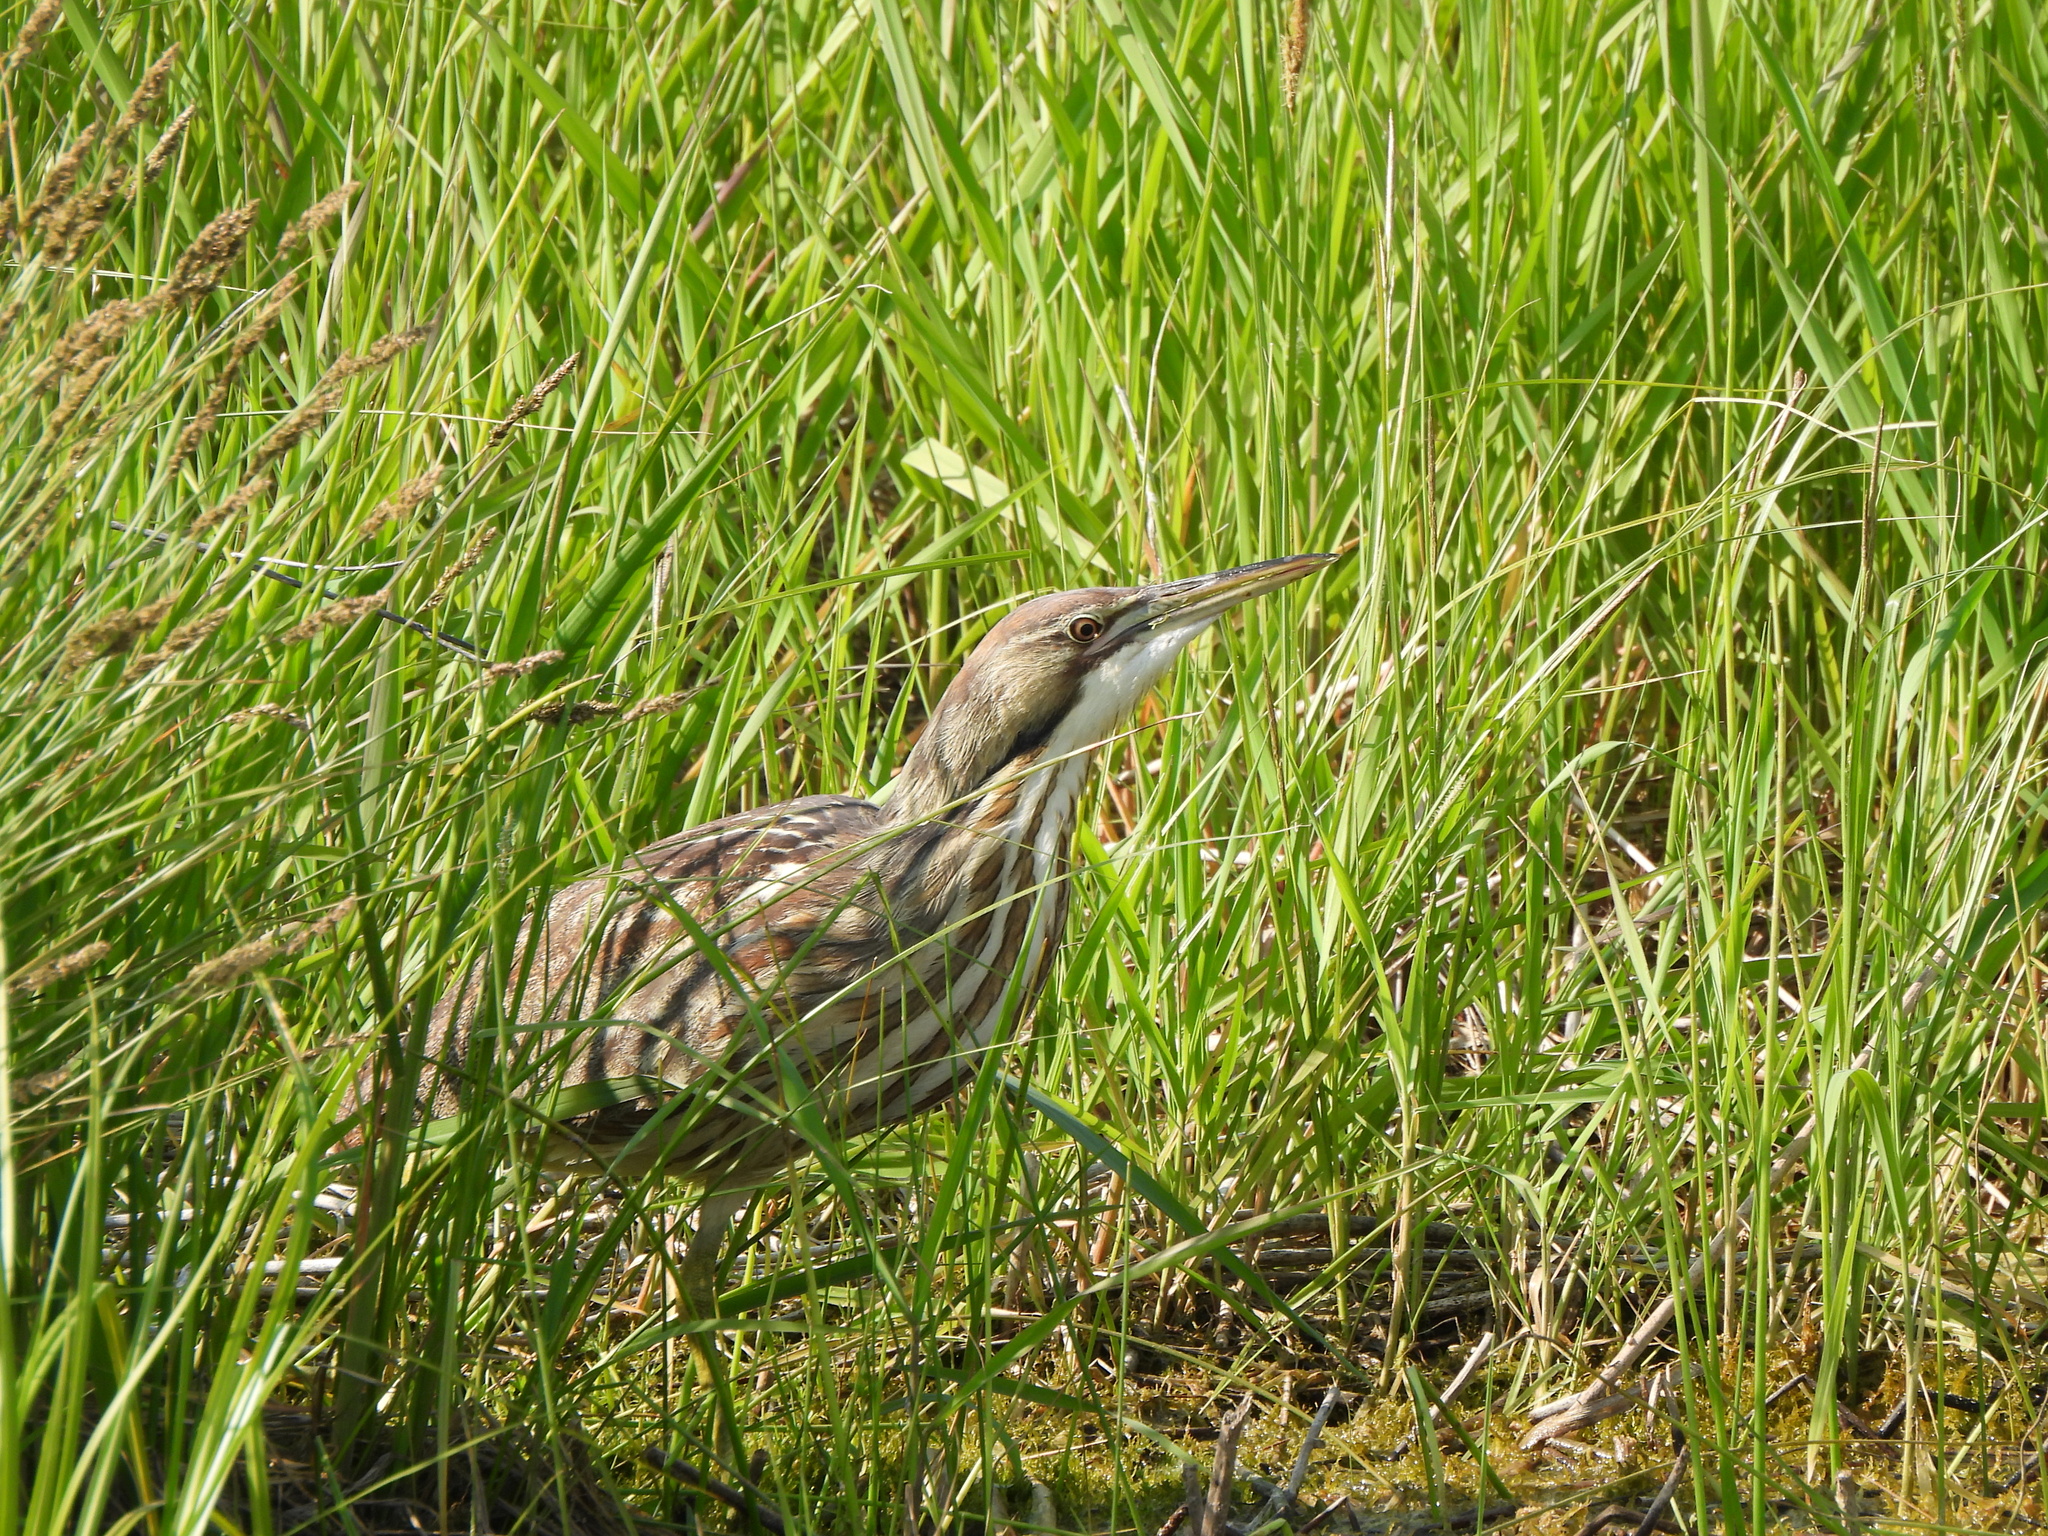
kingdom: Animalia
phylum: Chordata
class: Aves
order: Pelecaniformes
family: Ardeidae
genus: Botaurus
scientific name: Botaurus lentiginosus
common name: American bittern
